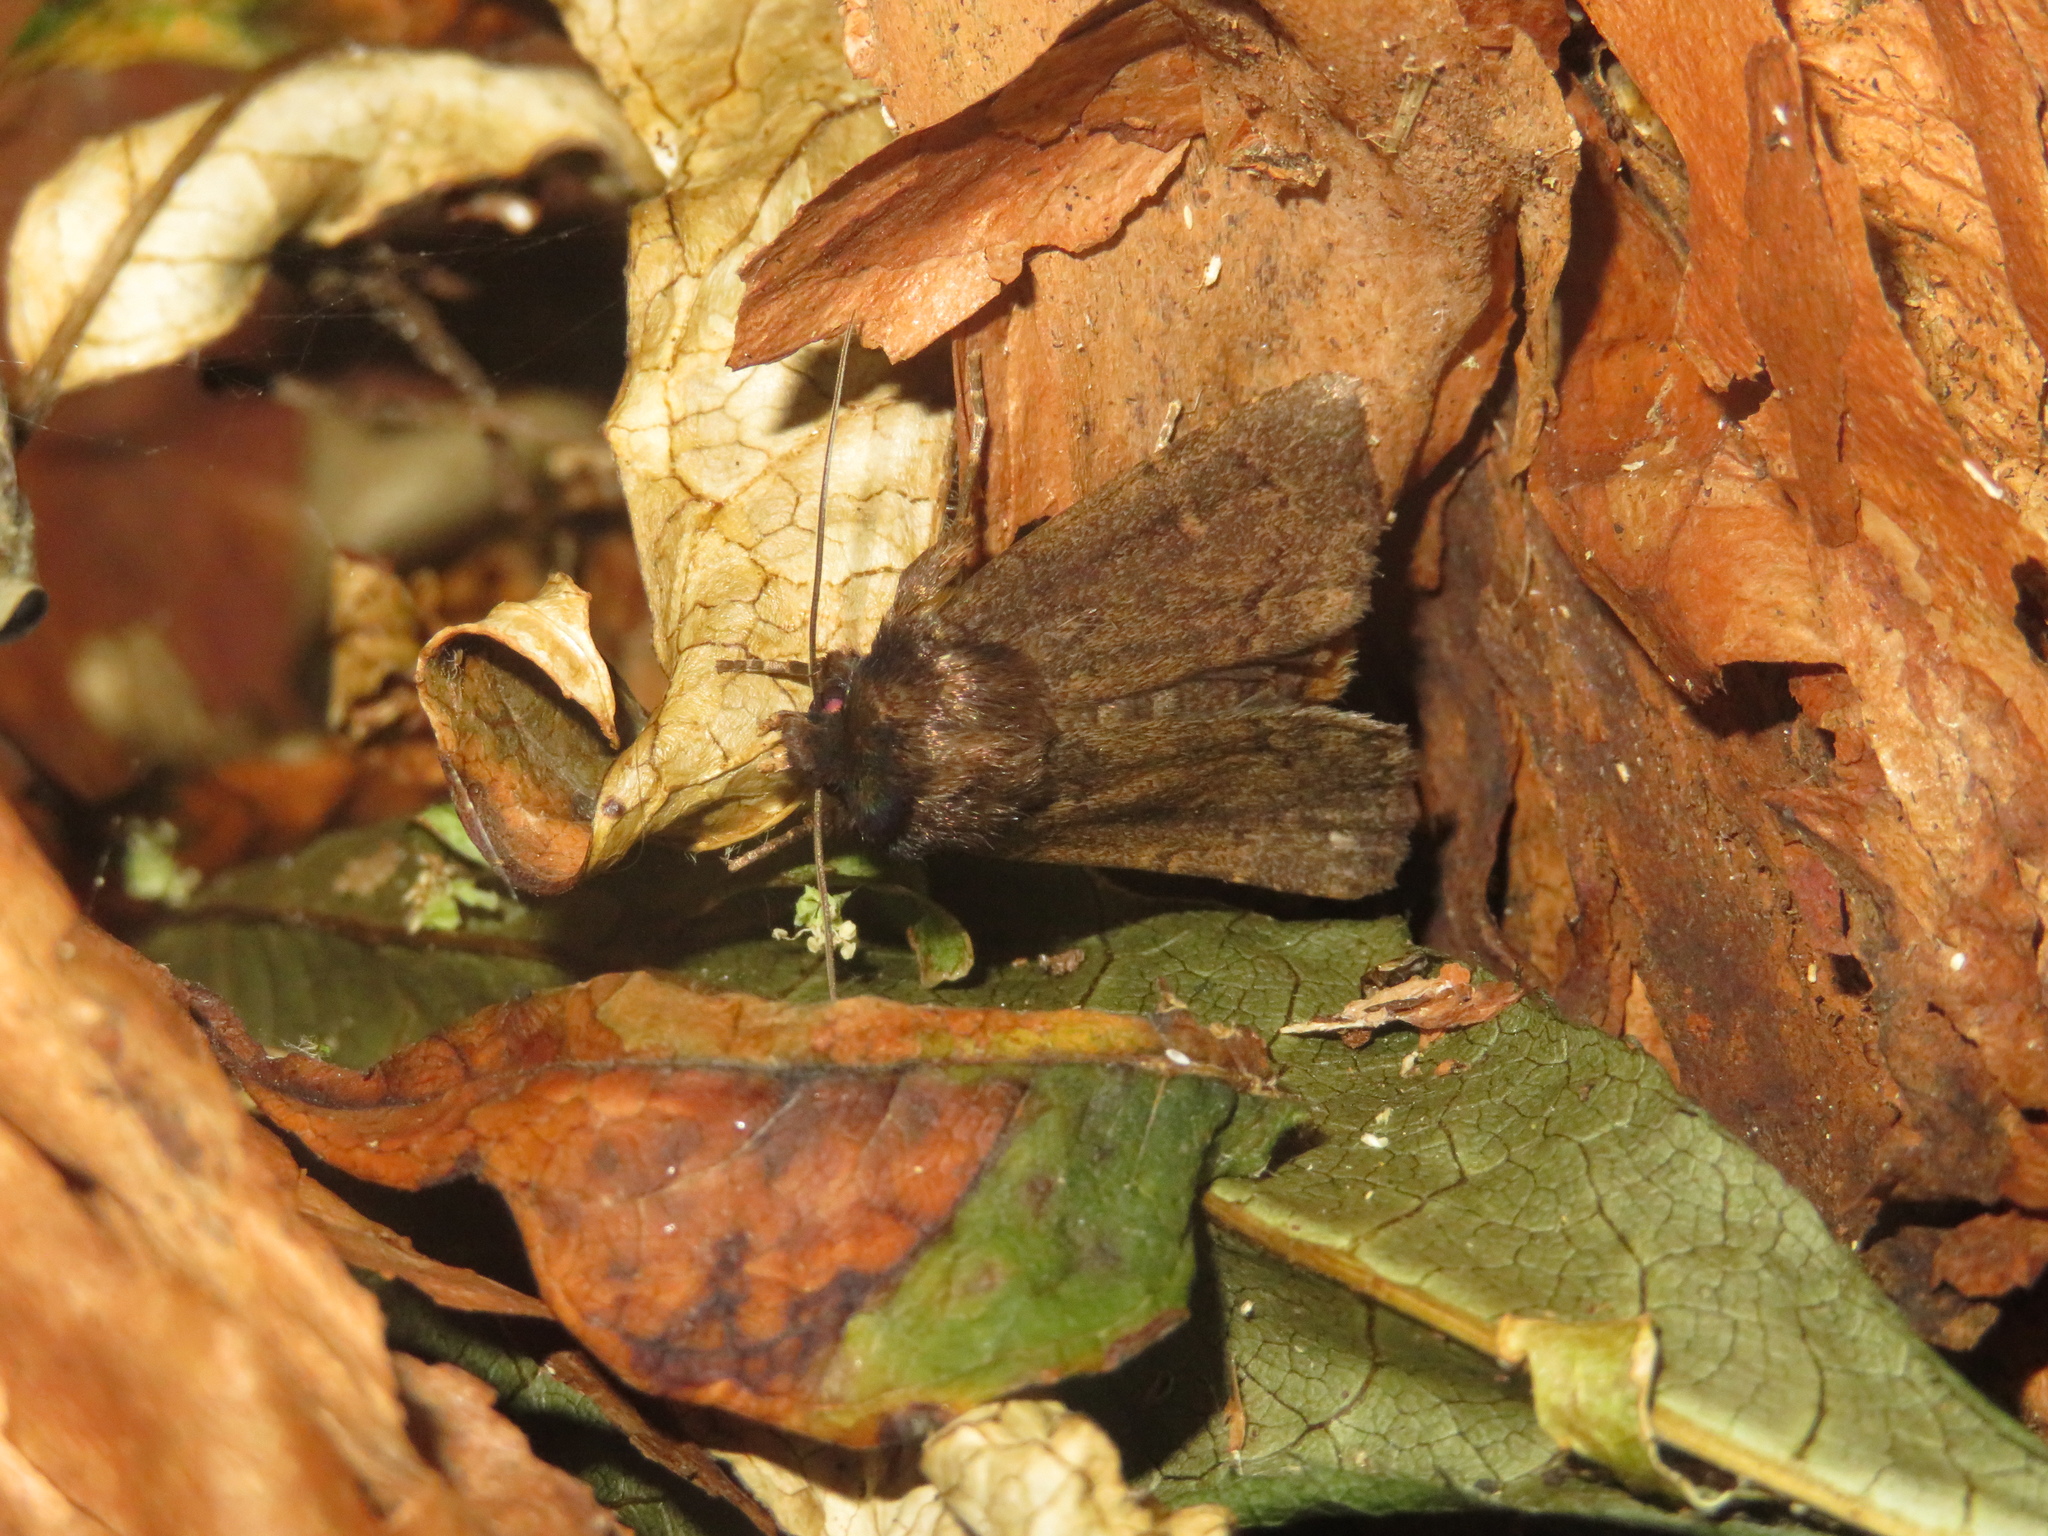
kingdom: Animalia
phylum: Arthropoda
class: Insecta
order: Lepidoptera
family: Noctuidae
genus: Bityla
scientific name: Bityla defigurata
